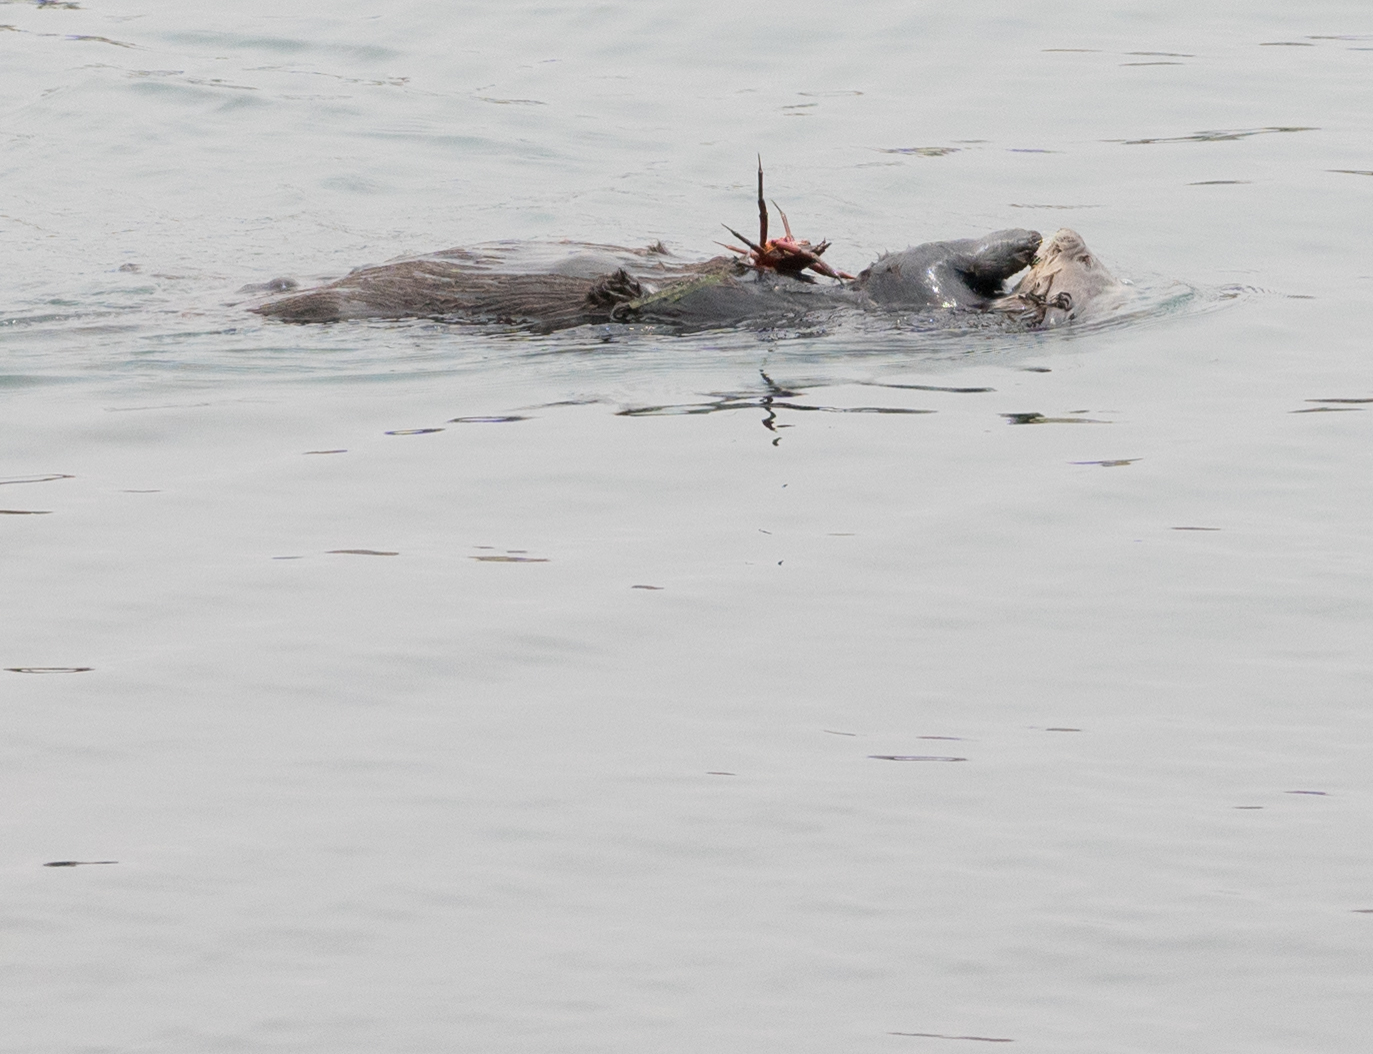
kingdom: Animalia
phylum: Chordata
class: Mammalia
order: Carnivora
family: Mustelidae
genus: Enhydra
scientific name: Enhydra lutris
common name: Sea otter
